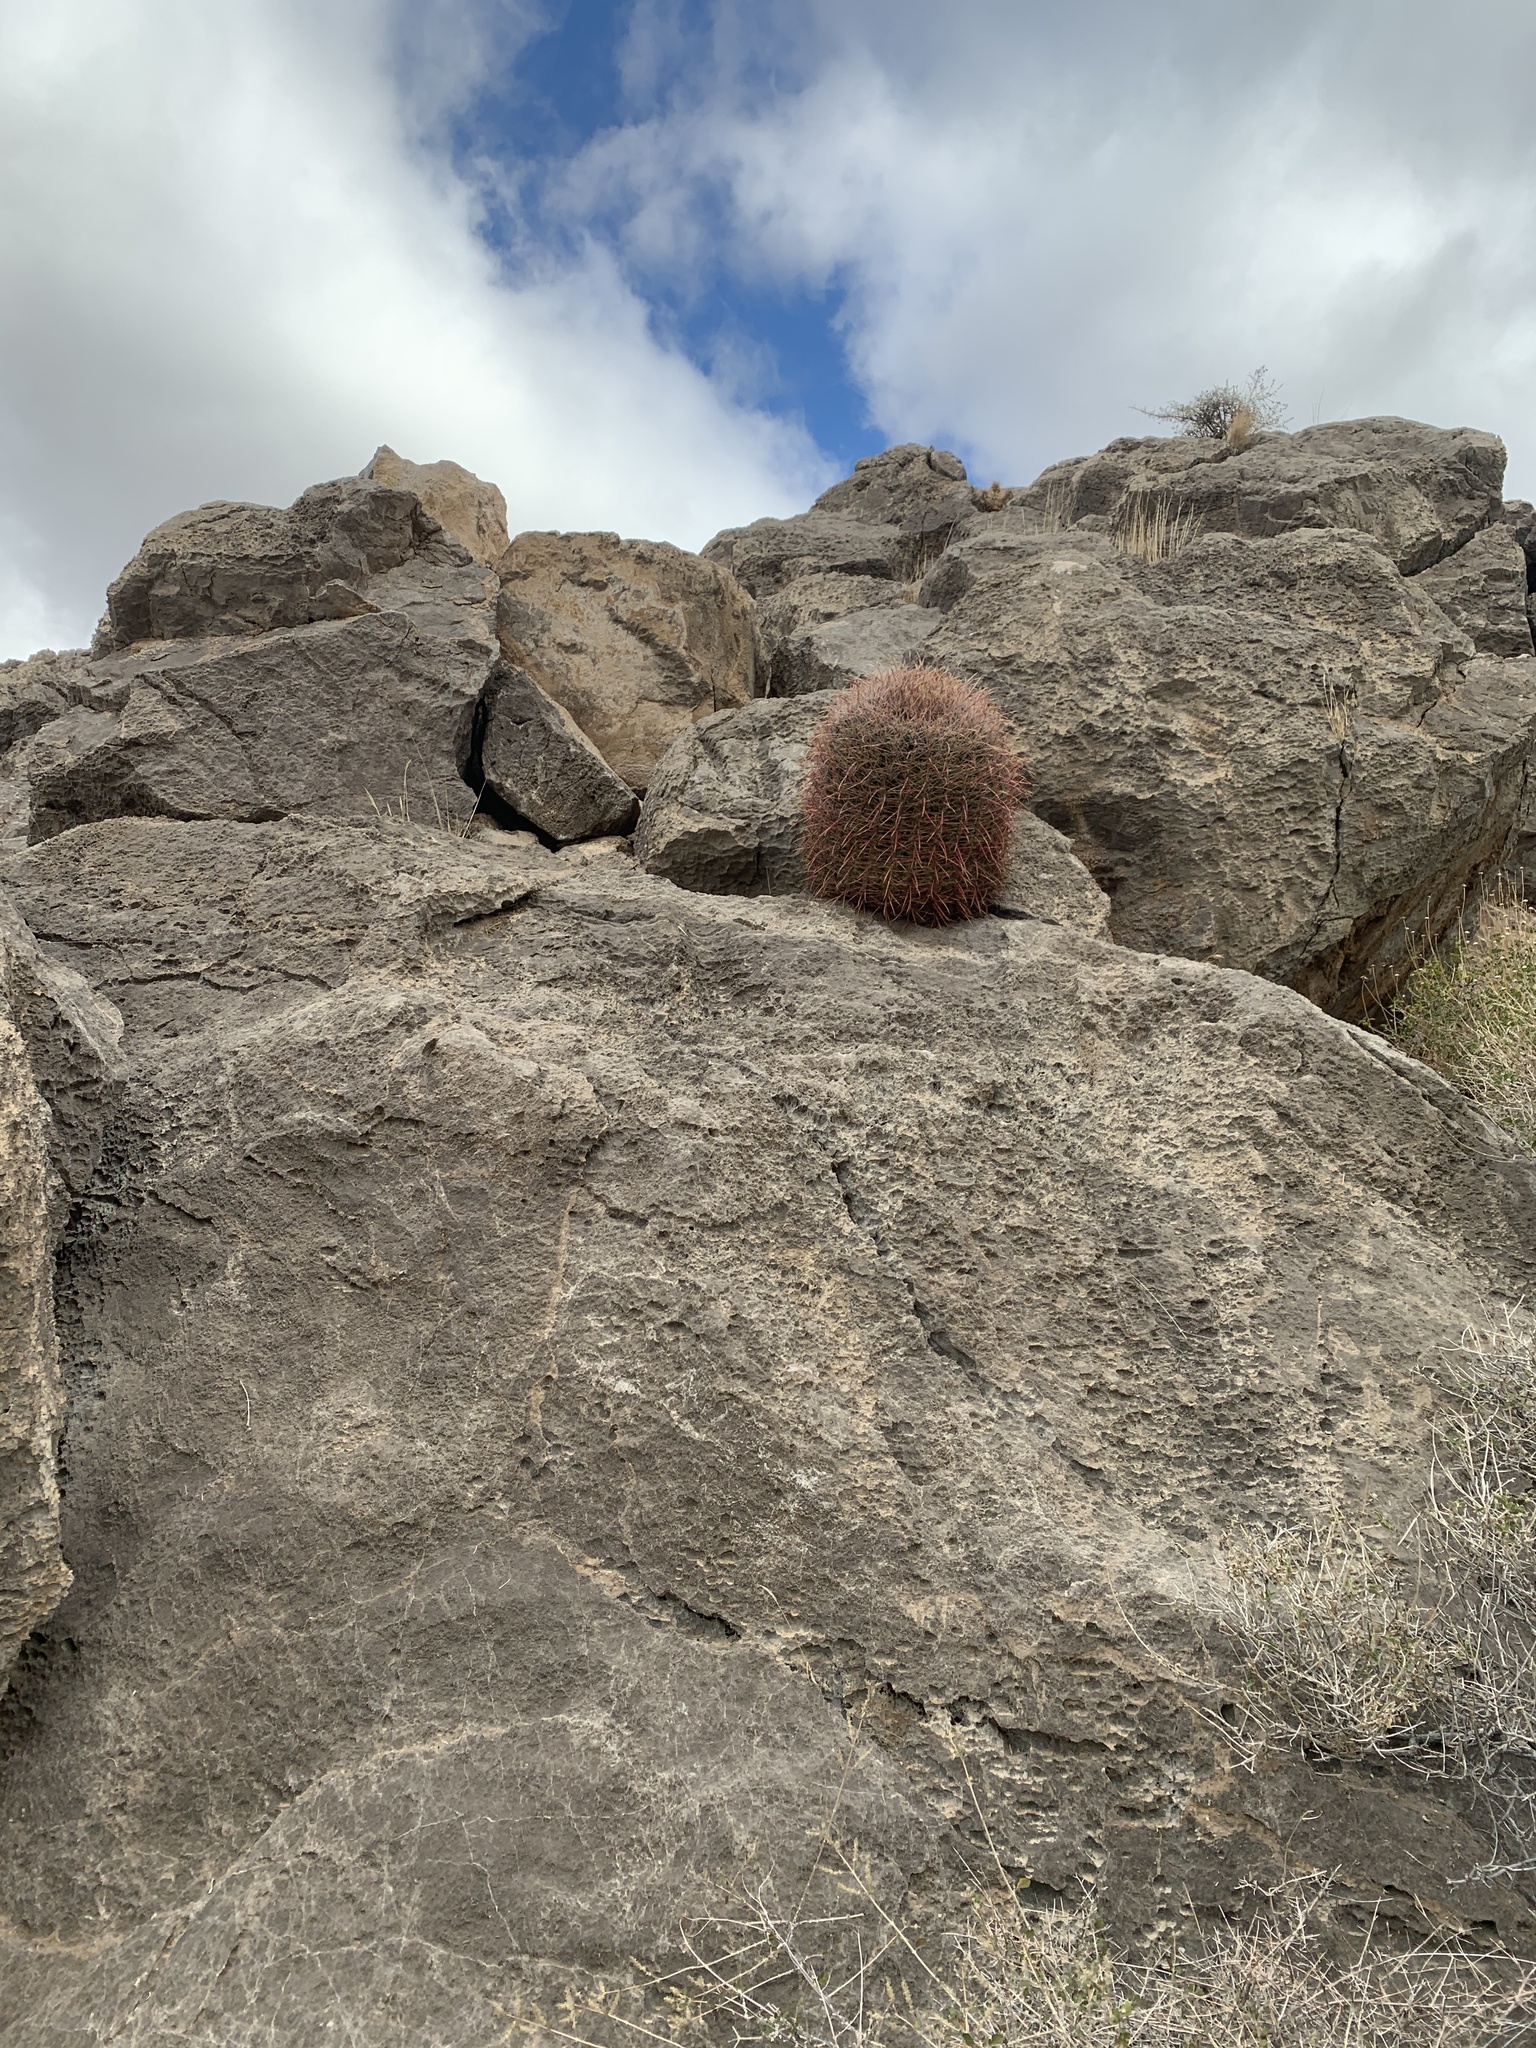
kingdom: Plantae
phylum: Tracheophyta
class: Magnoliopsida
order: Caryophyllales
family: Cactaceae
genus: Ferocactus
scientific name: Ferocactus cylindraceus
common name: California barrel cactus
